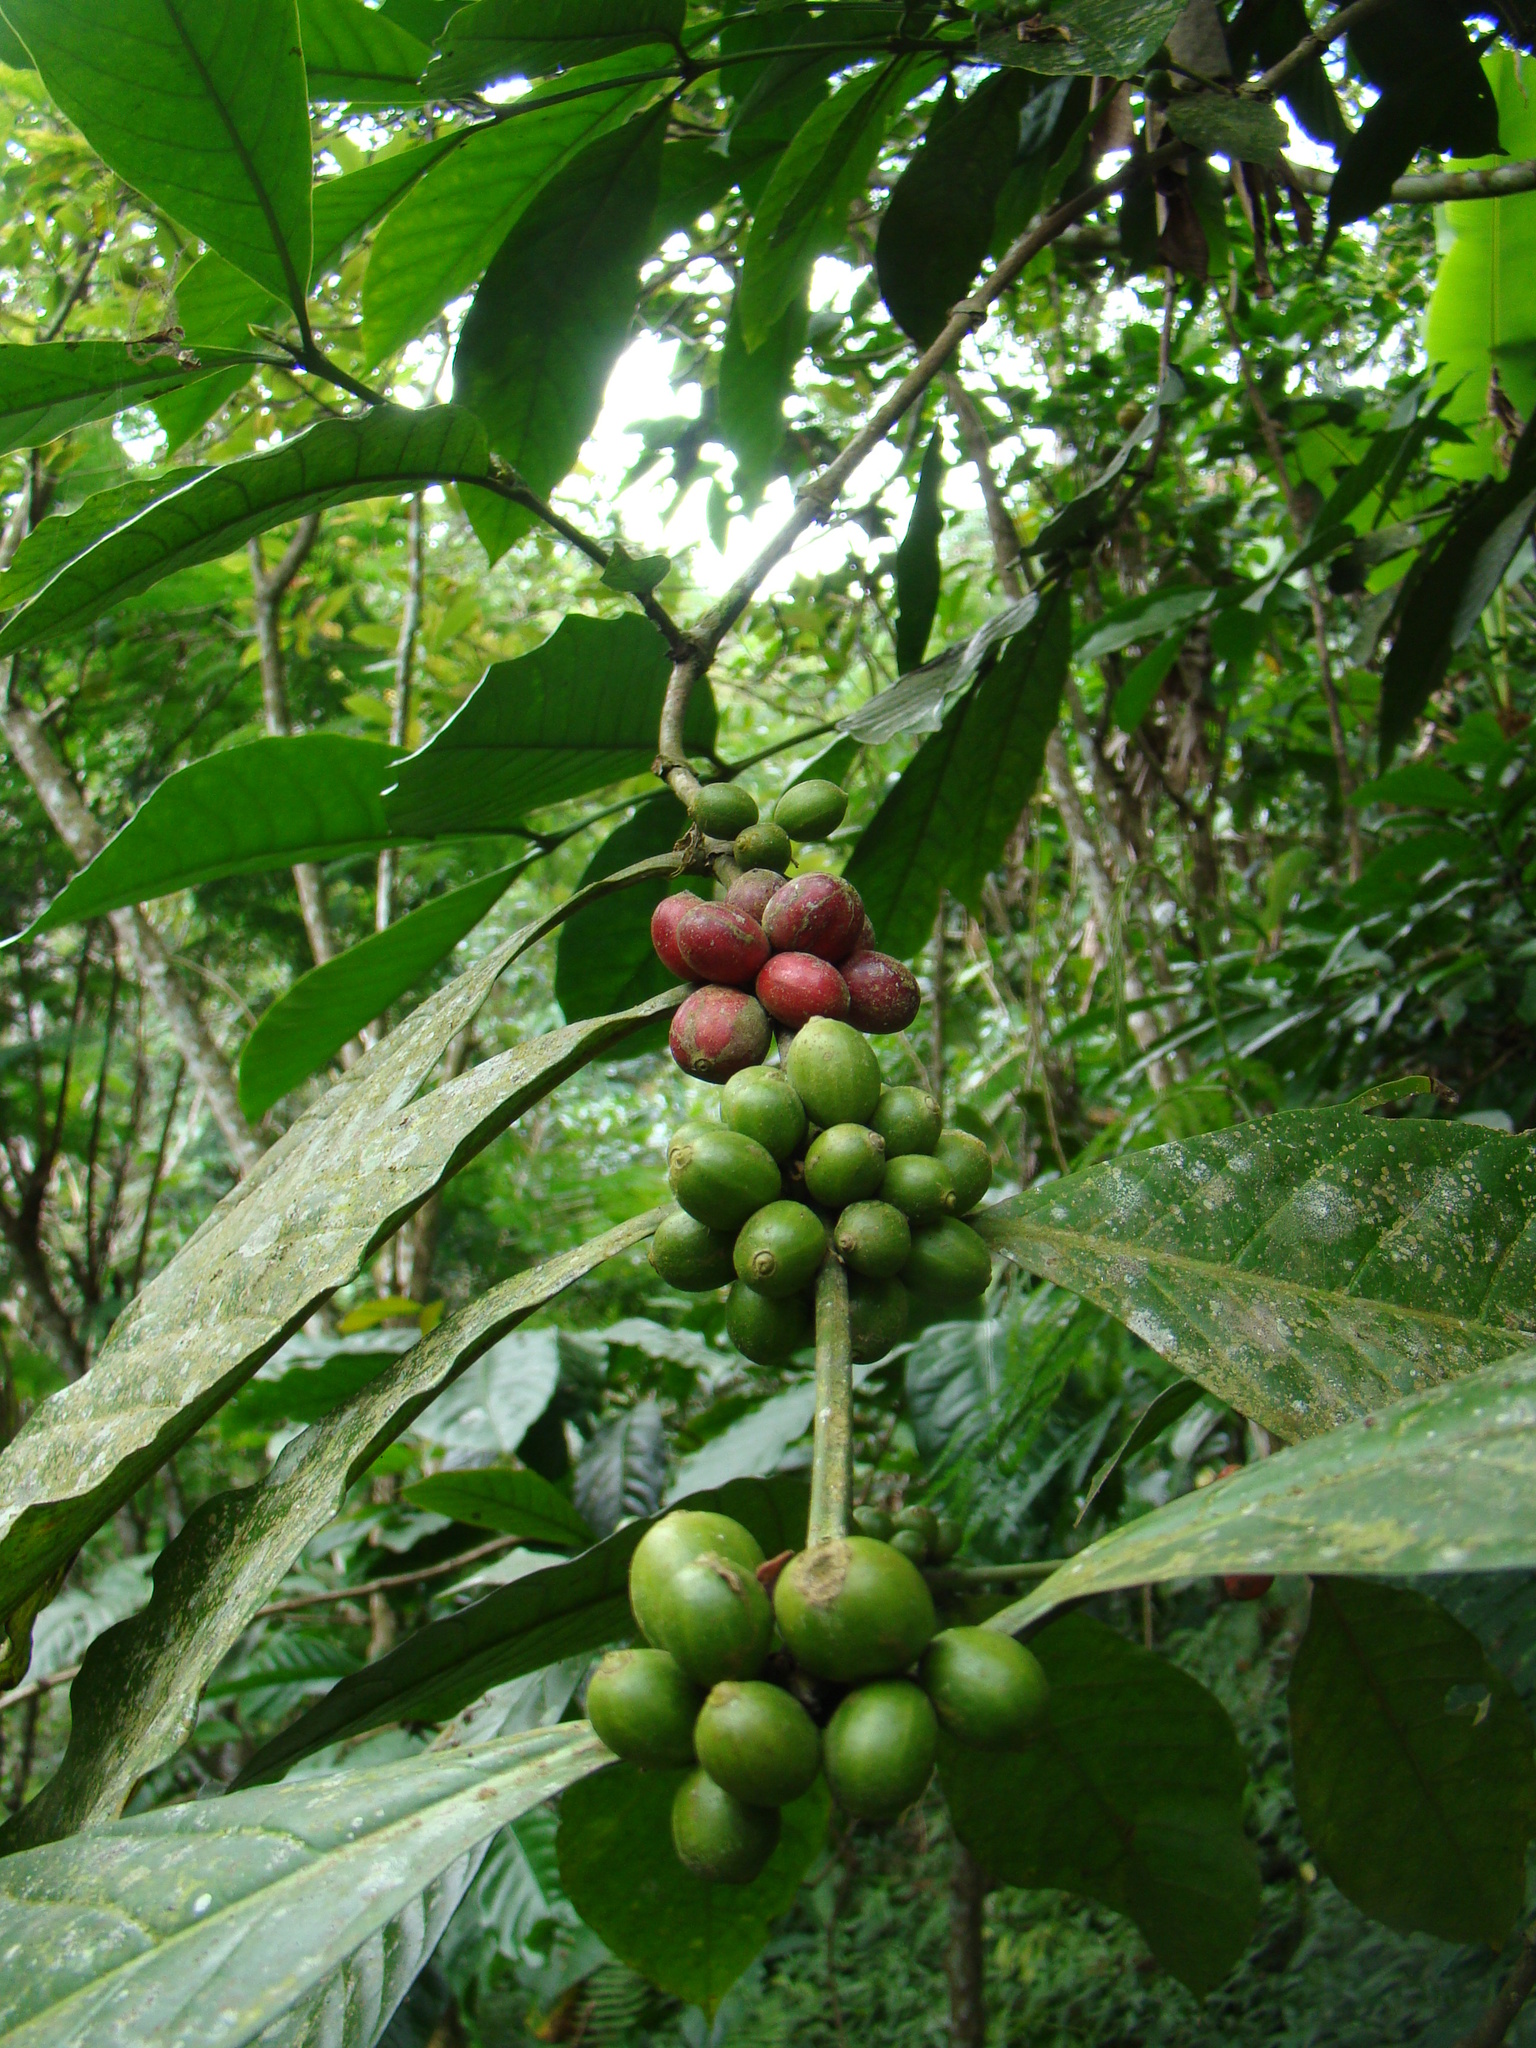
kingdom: Plantae
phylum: Tracheophyta
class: Magnoliopsida
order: Gentianales
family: Rubiaceae
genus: Coffea
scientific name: Coffea arabica
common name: Coffee
